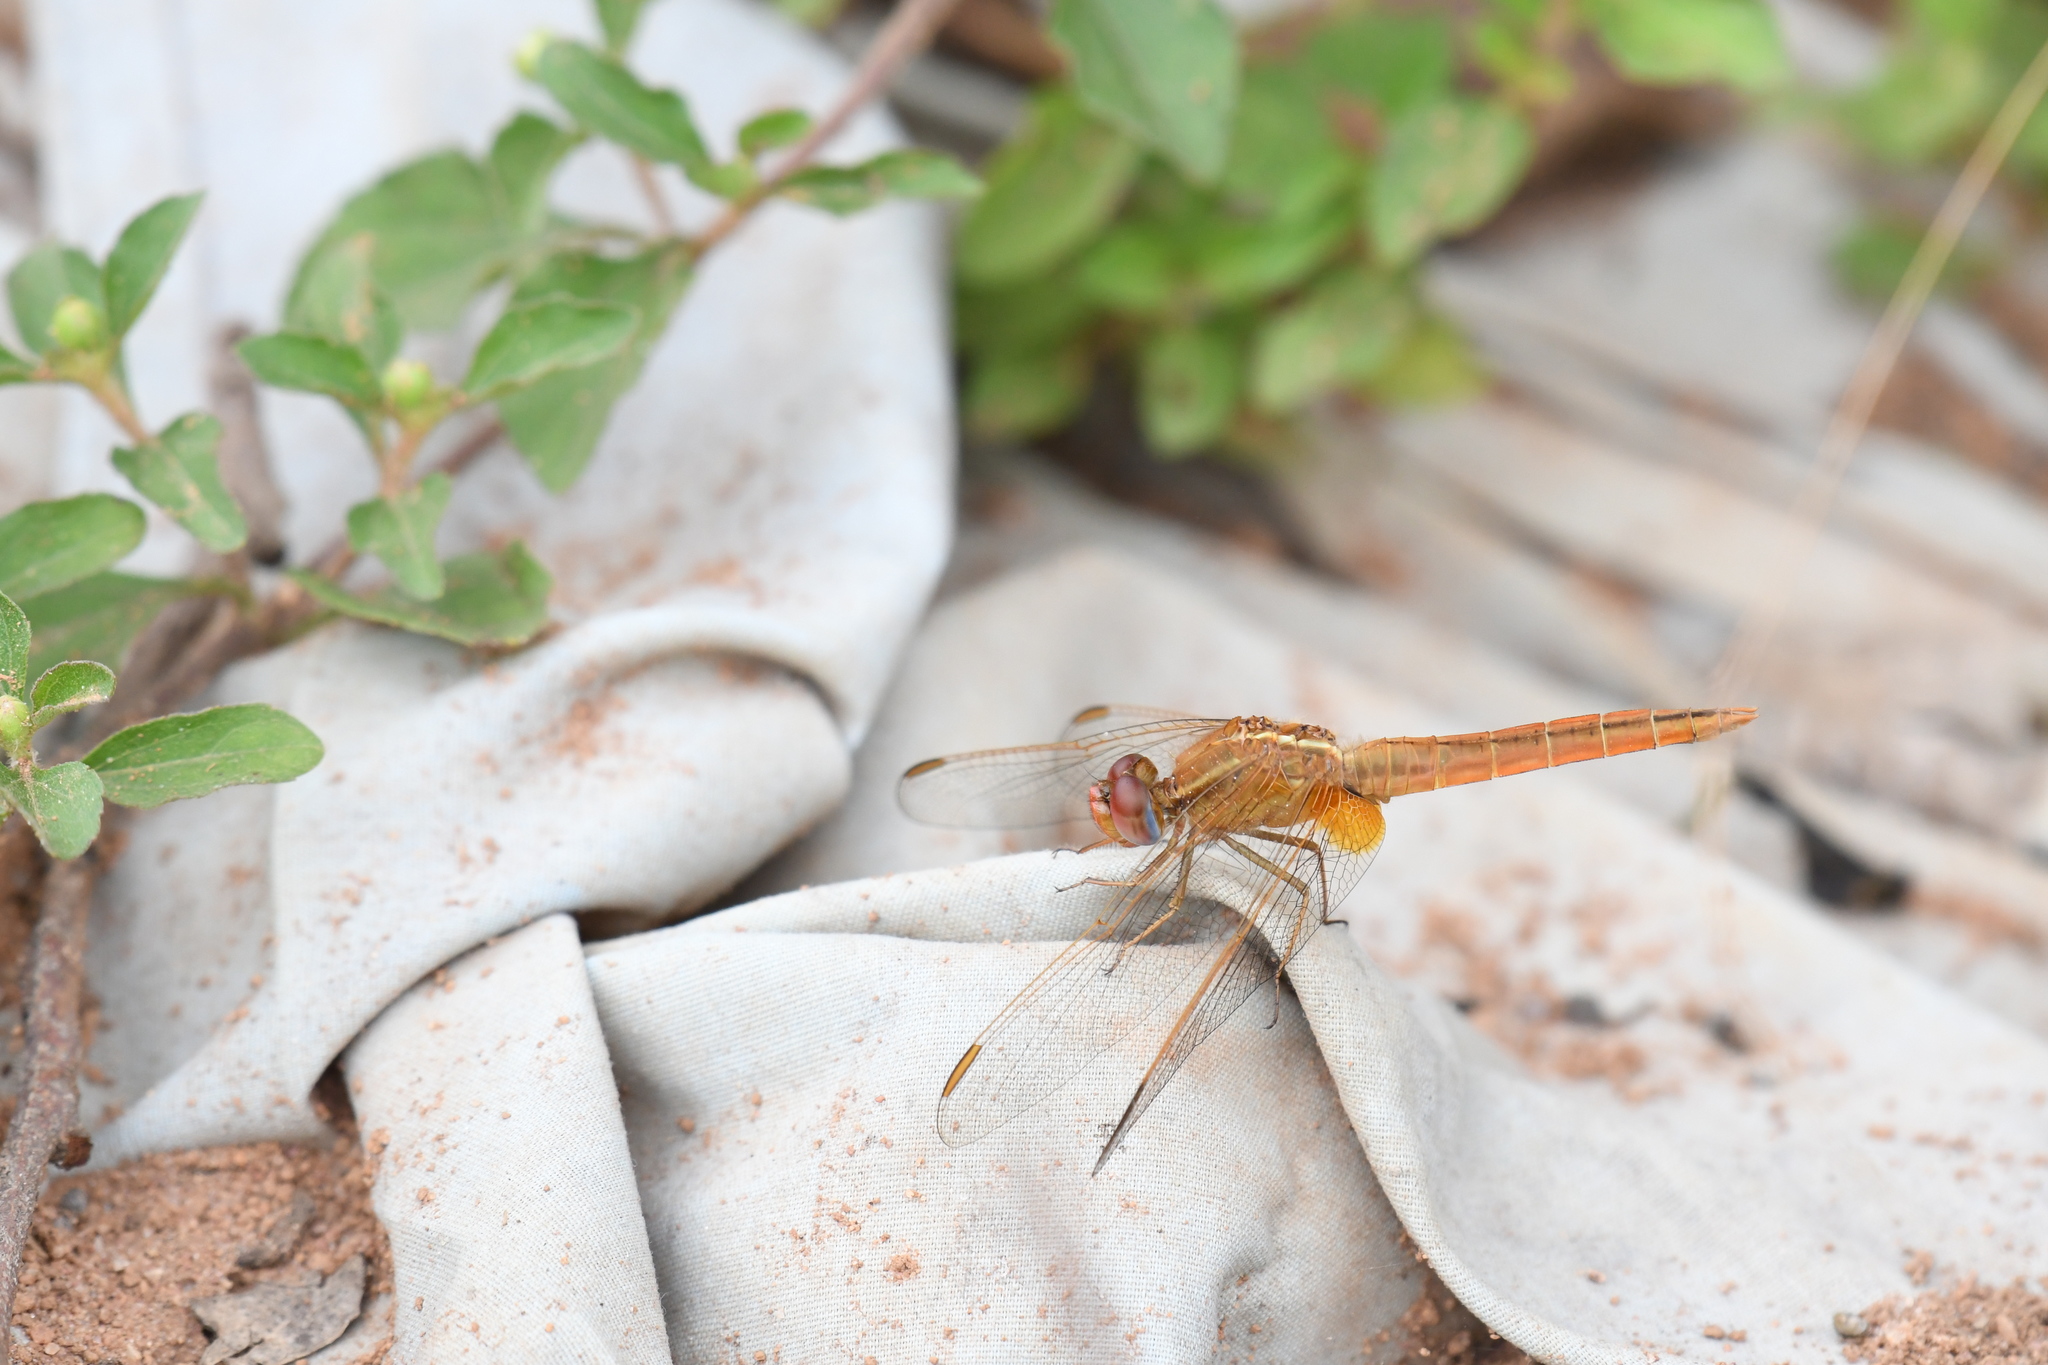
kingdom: Animalia
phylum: Arthropoda
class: Insecta
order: Odonata
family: Libellulidae
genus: Crocothemis
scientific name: Crocothemis erythraea
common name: Scarlet dragonfly
